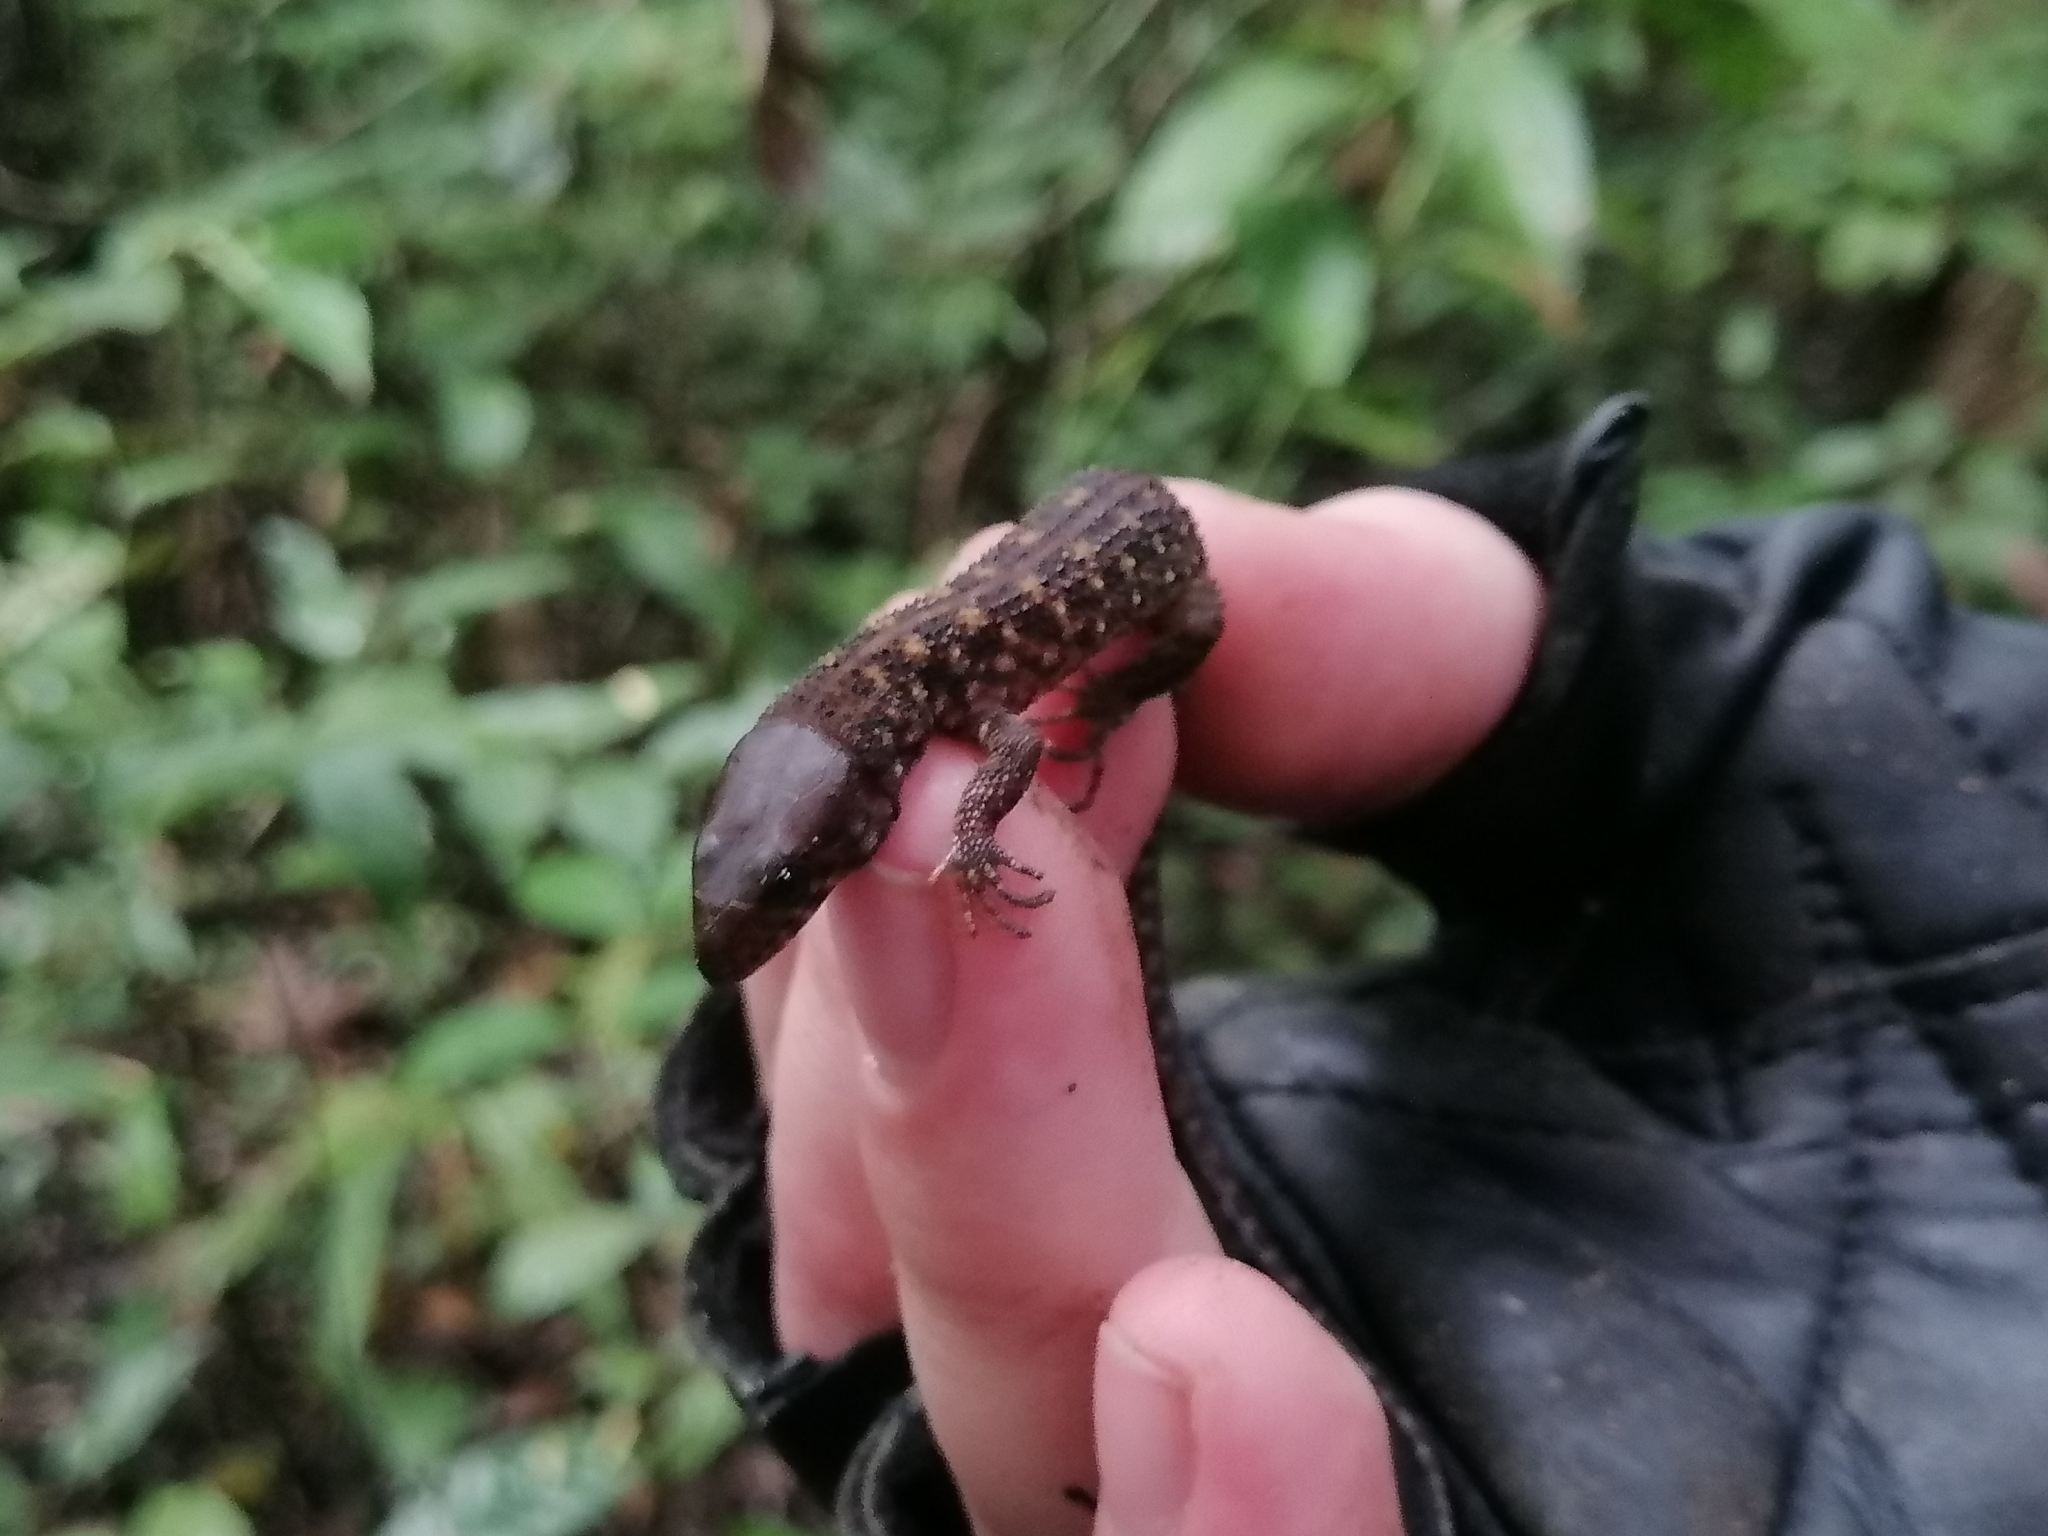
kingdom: Animalia
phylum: Chordata
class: Squamata
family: Xantusiidae
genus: Lepidophyma
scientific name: Lepidophyma flavimaculatum
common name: Yellow-spotted night lizard
